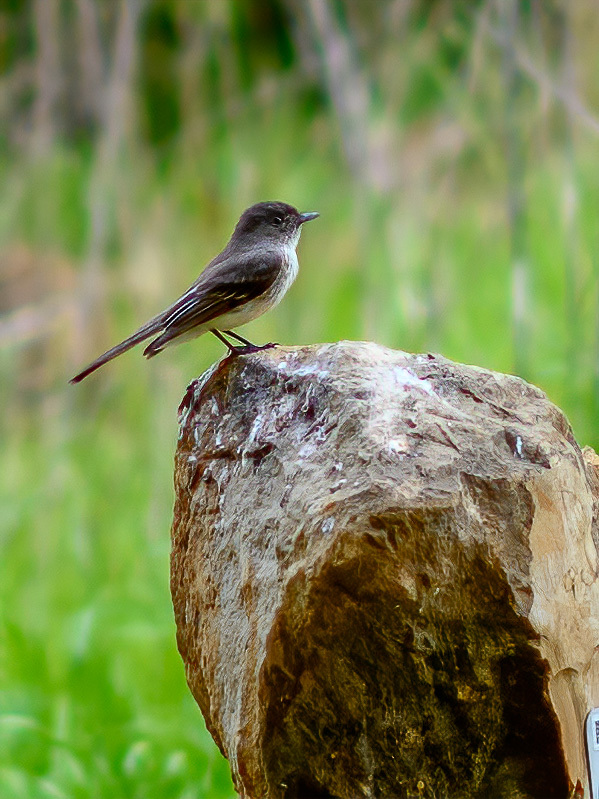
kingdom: Animalia
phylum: Chordata
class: Aves
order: Passeriformes
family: Tyrannidae
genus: Sayornis
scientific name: Sayornis phoebe
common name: Eastern phoebe
